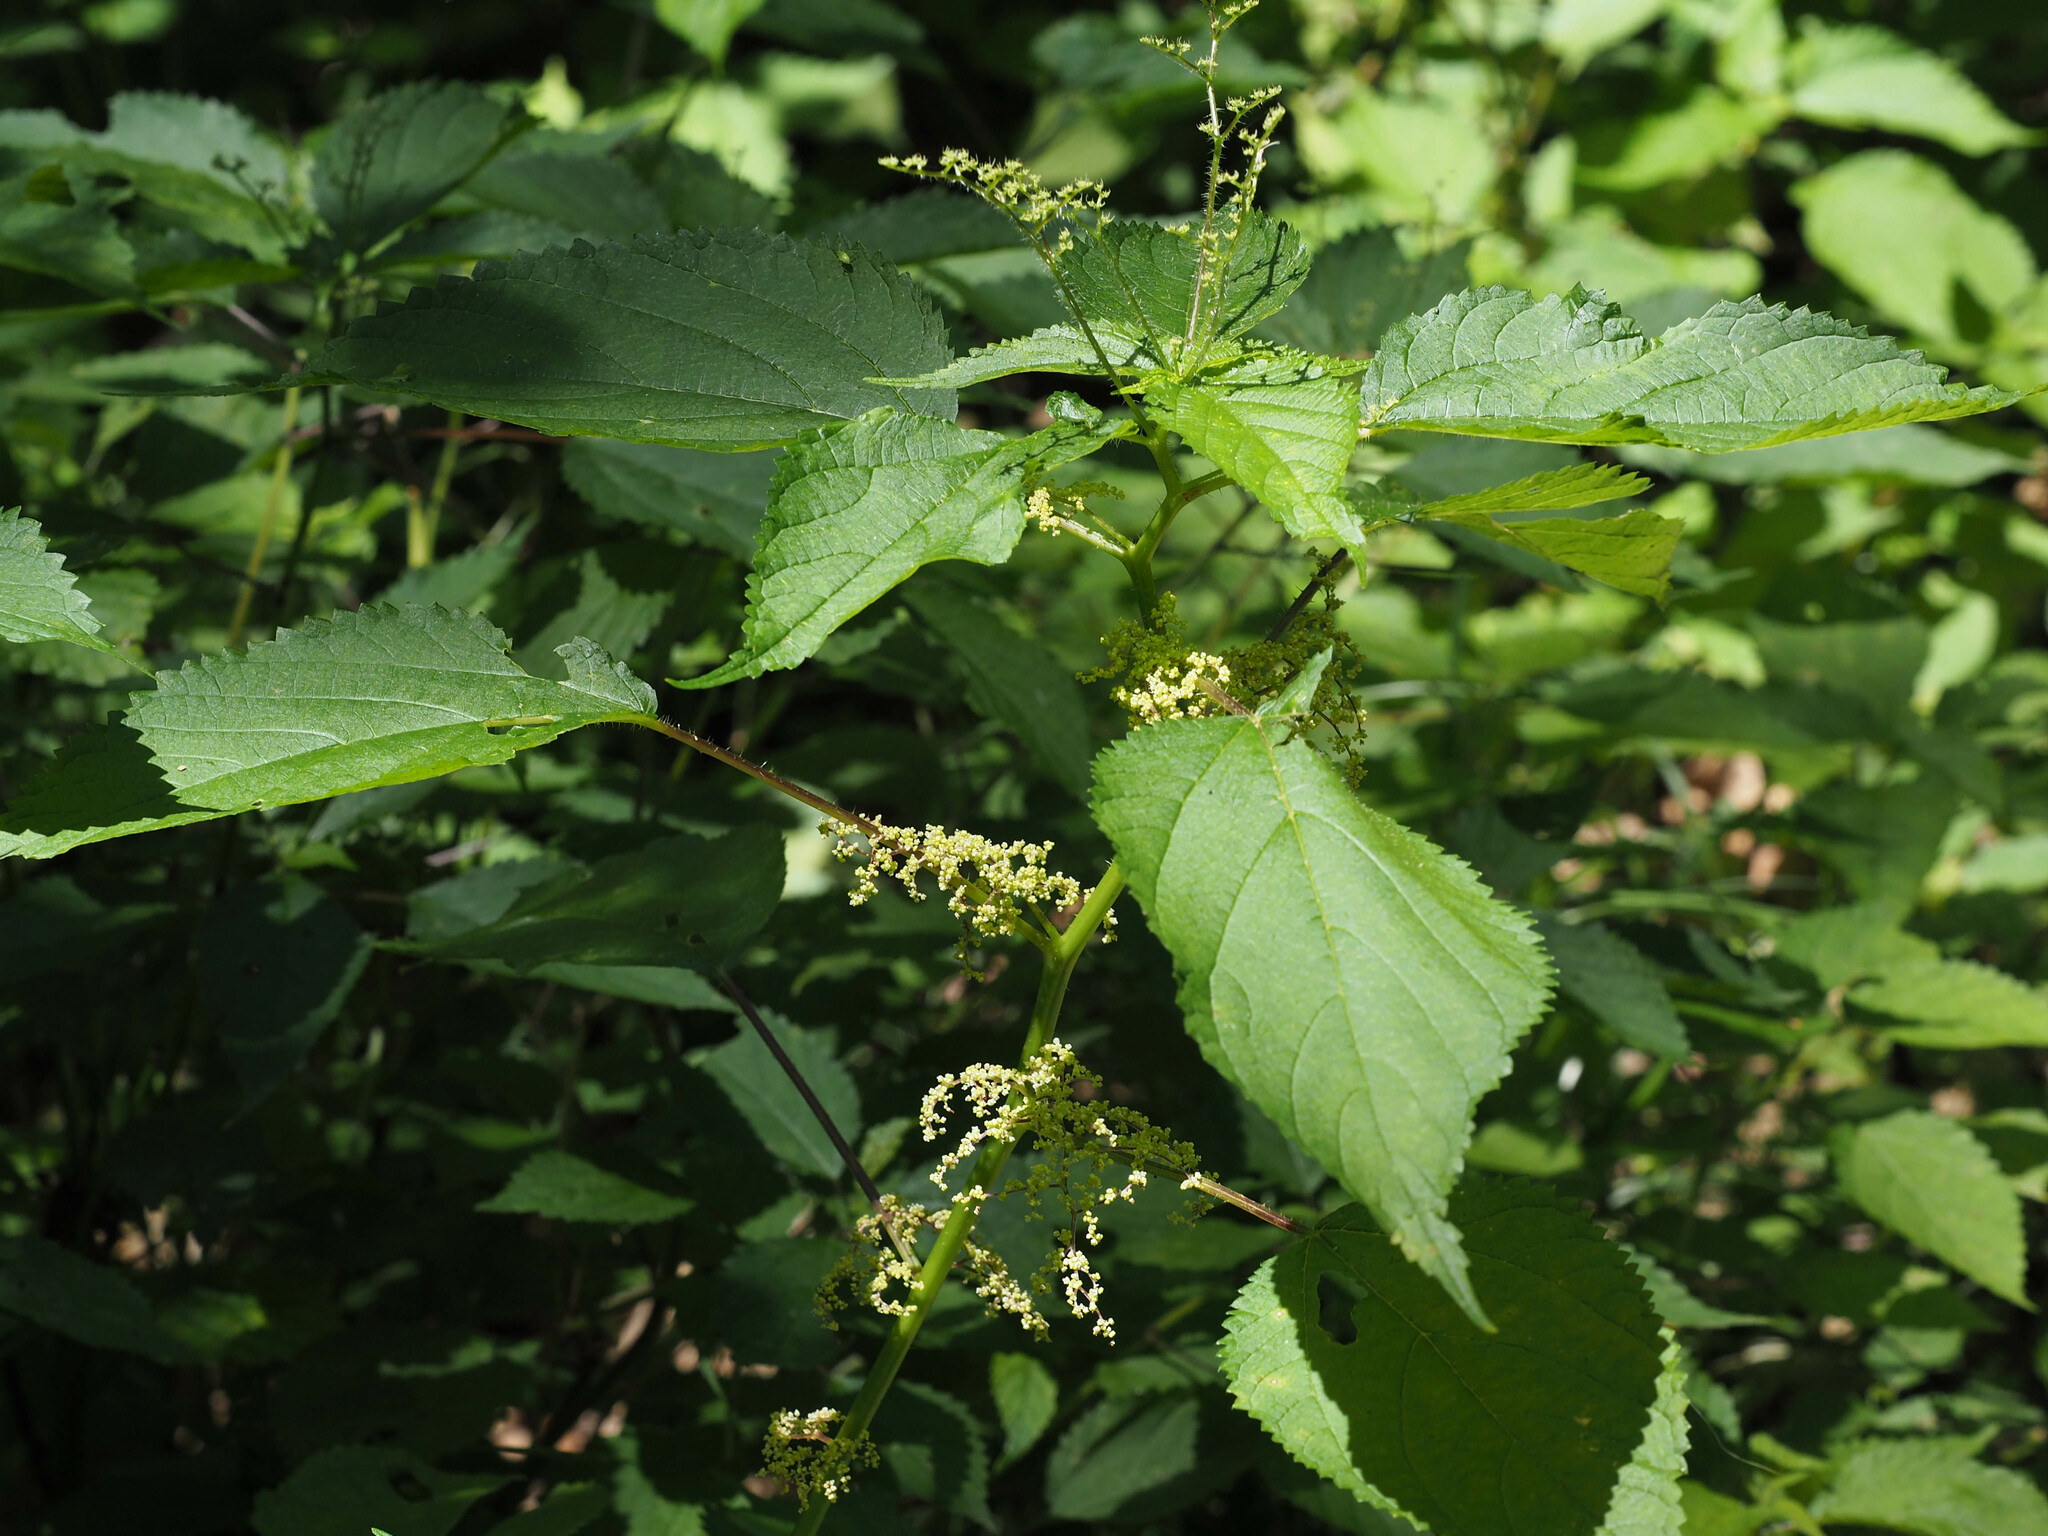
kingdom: Plantae
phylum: Tracheophyta
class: Magnoliopsida
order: Rosales
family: Urticaceae
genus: Laportea
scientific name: Laportea canadensis
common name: Canada nettle
